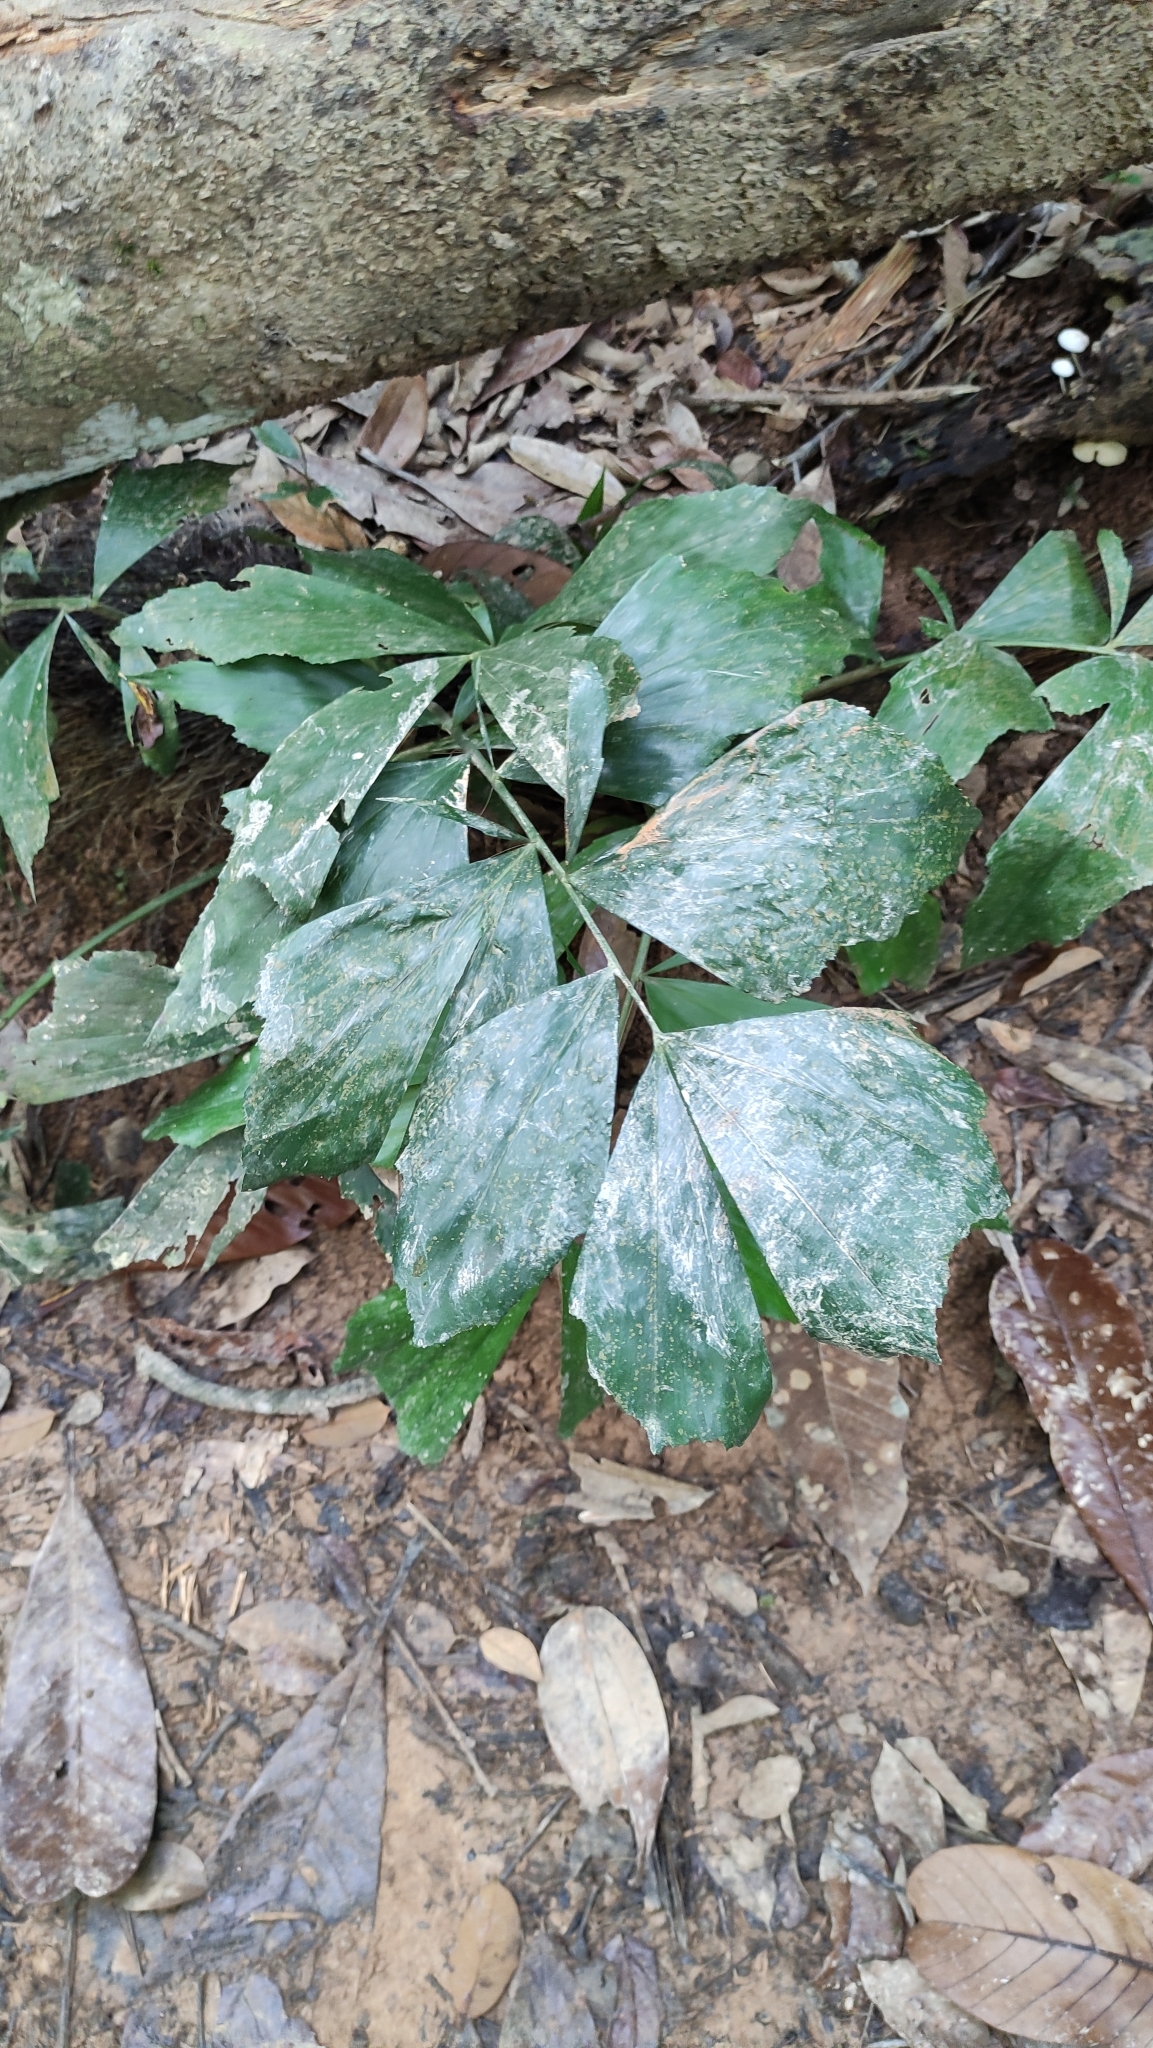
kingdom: Plantae
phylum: Tracheophyta
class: Liliopsida
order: Arecales
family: Arecaceae
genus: Caryota
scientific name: Caryota mitis
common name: Burmese fishtail palm
